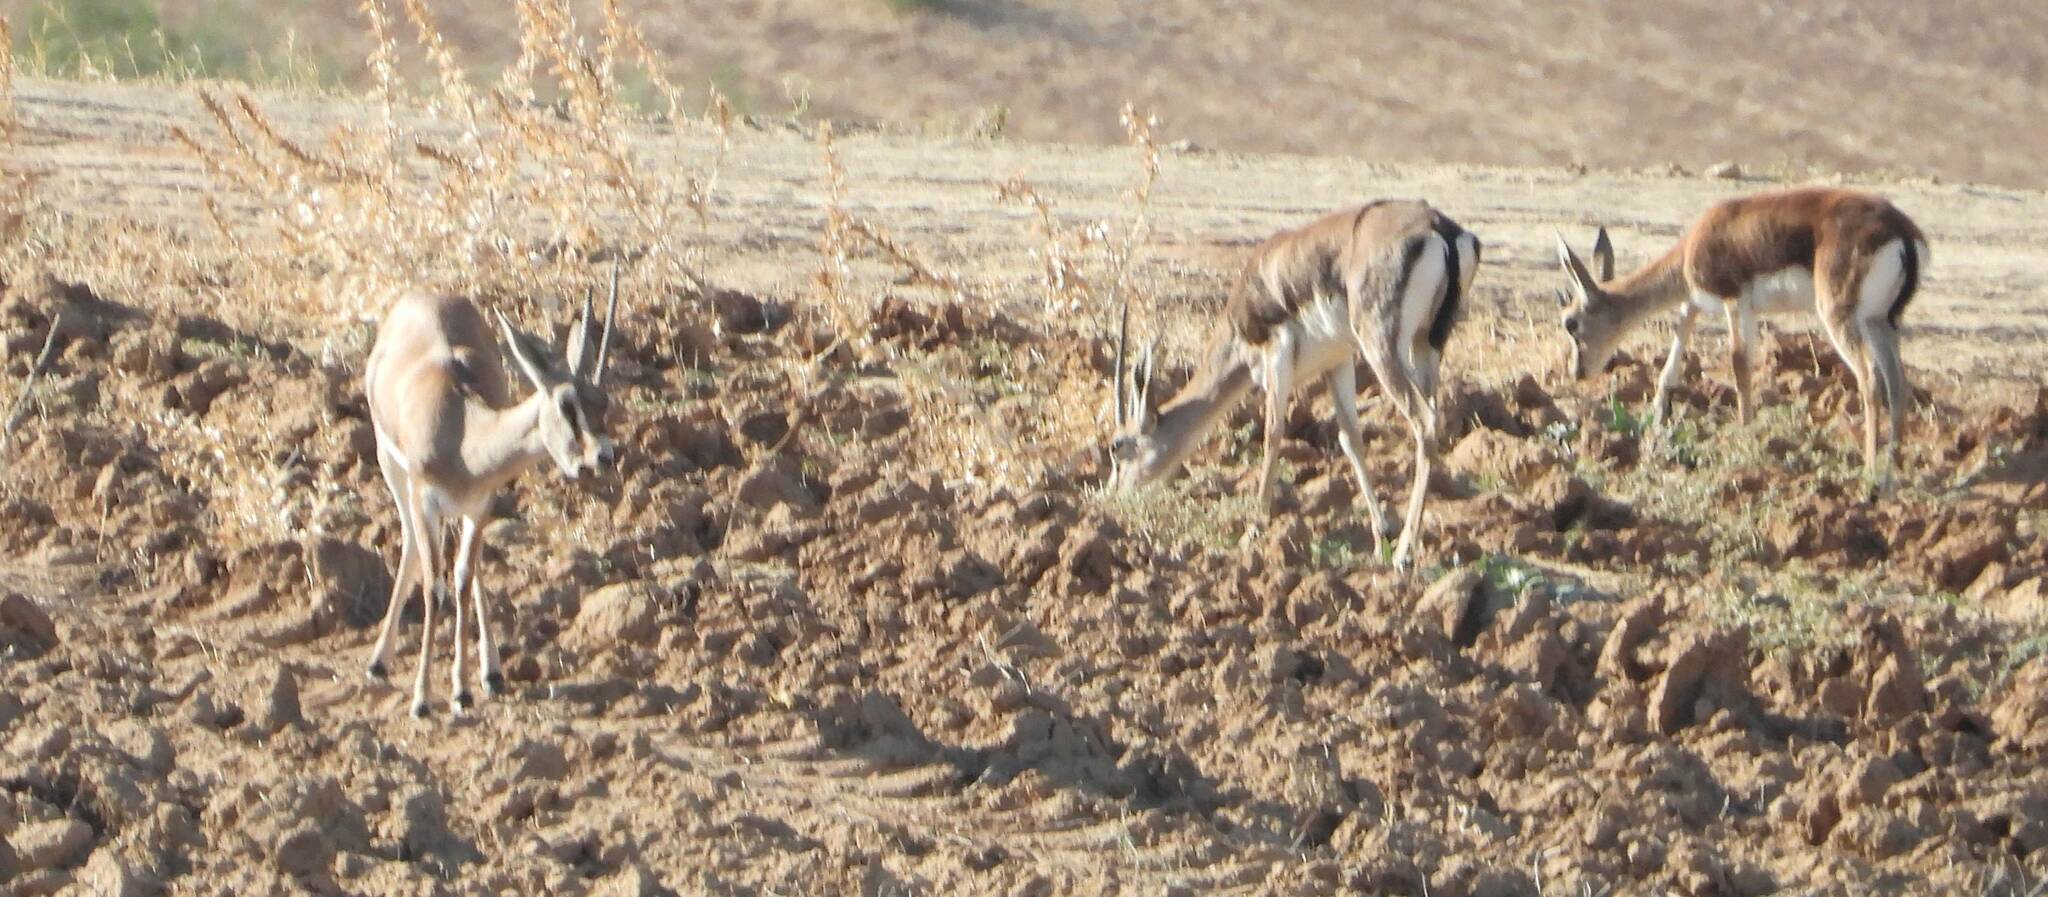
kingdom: Animalia
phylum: Chordata
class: Mammalia
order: Artiodactyla
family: Bovidae
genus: Gazella
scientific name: Gazella cuvieri
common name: Cuvier's gazelle
